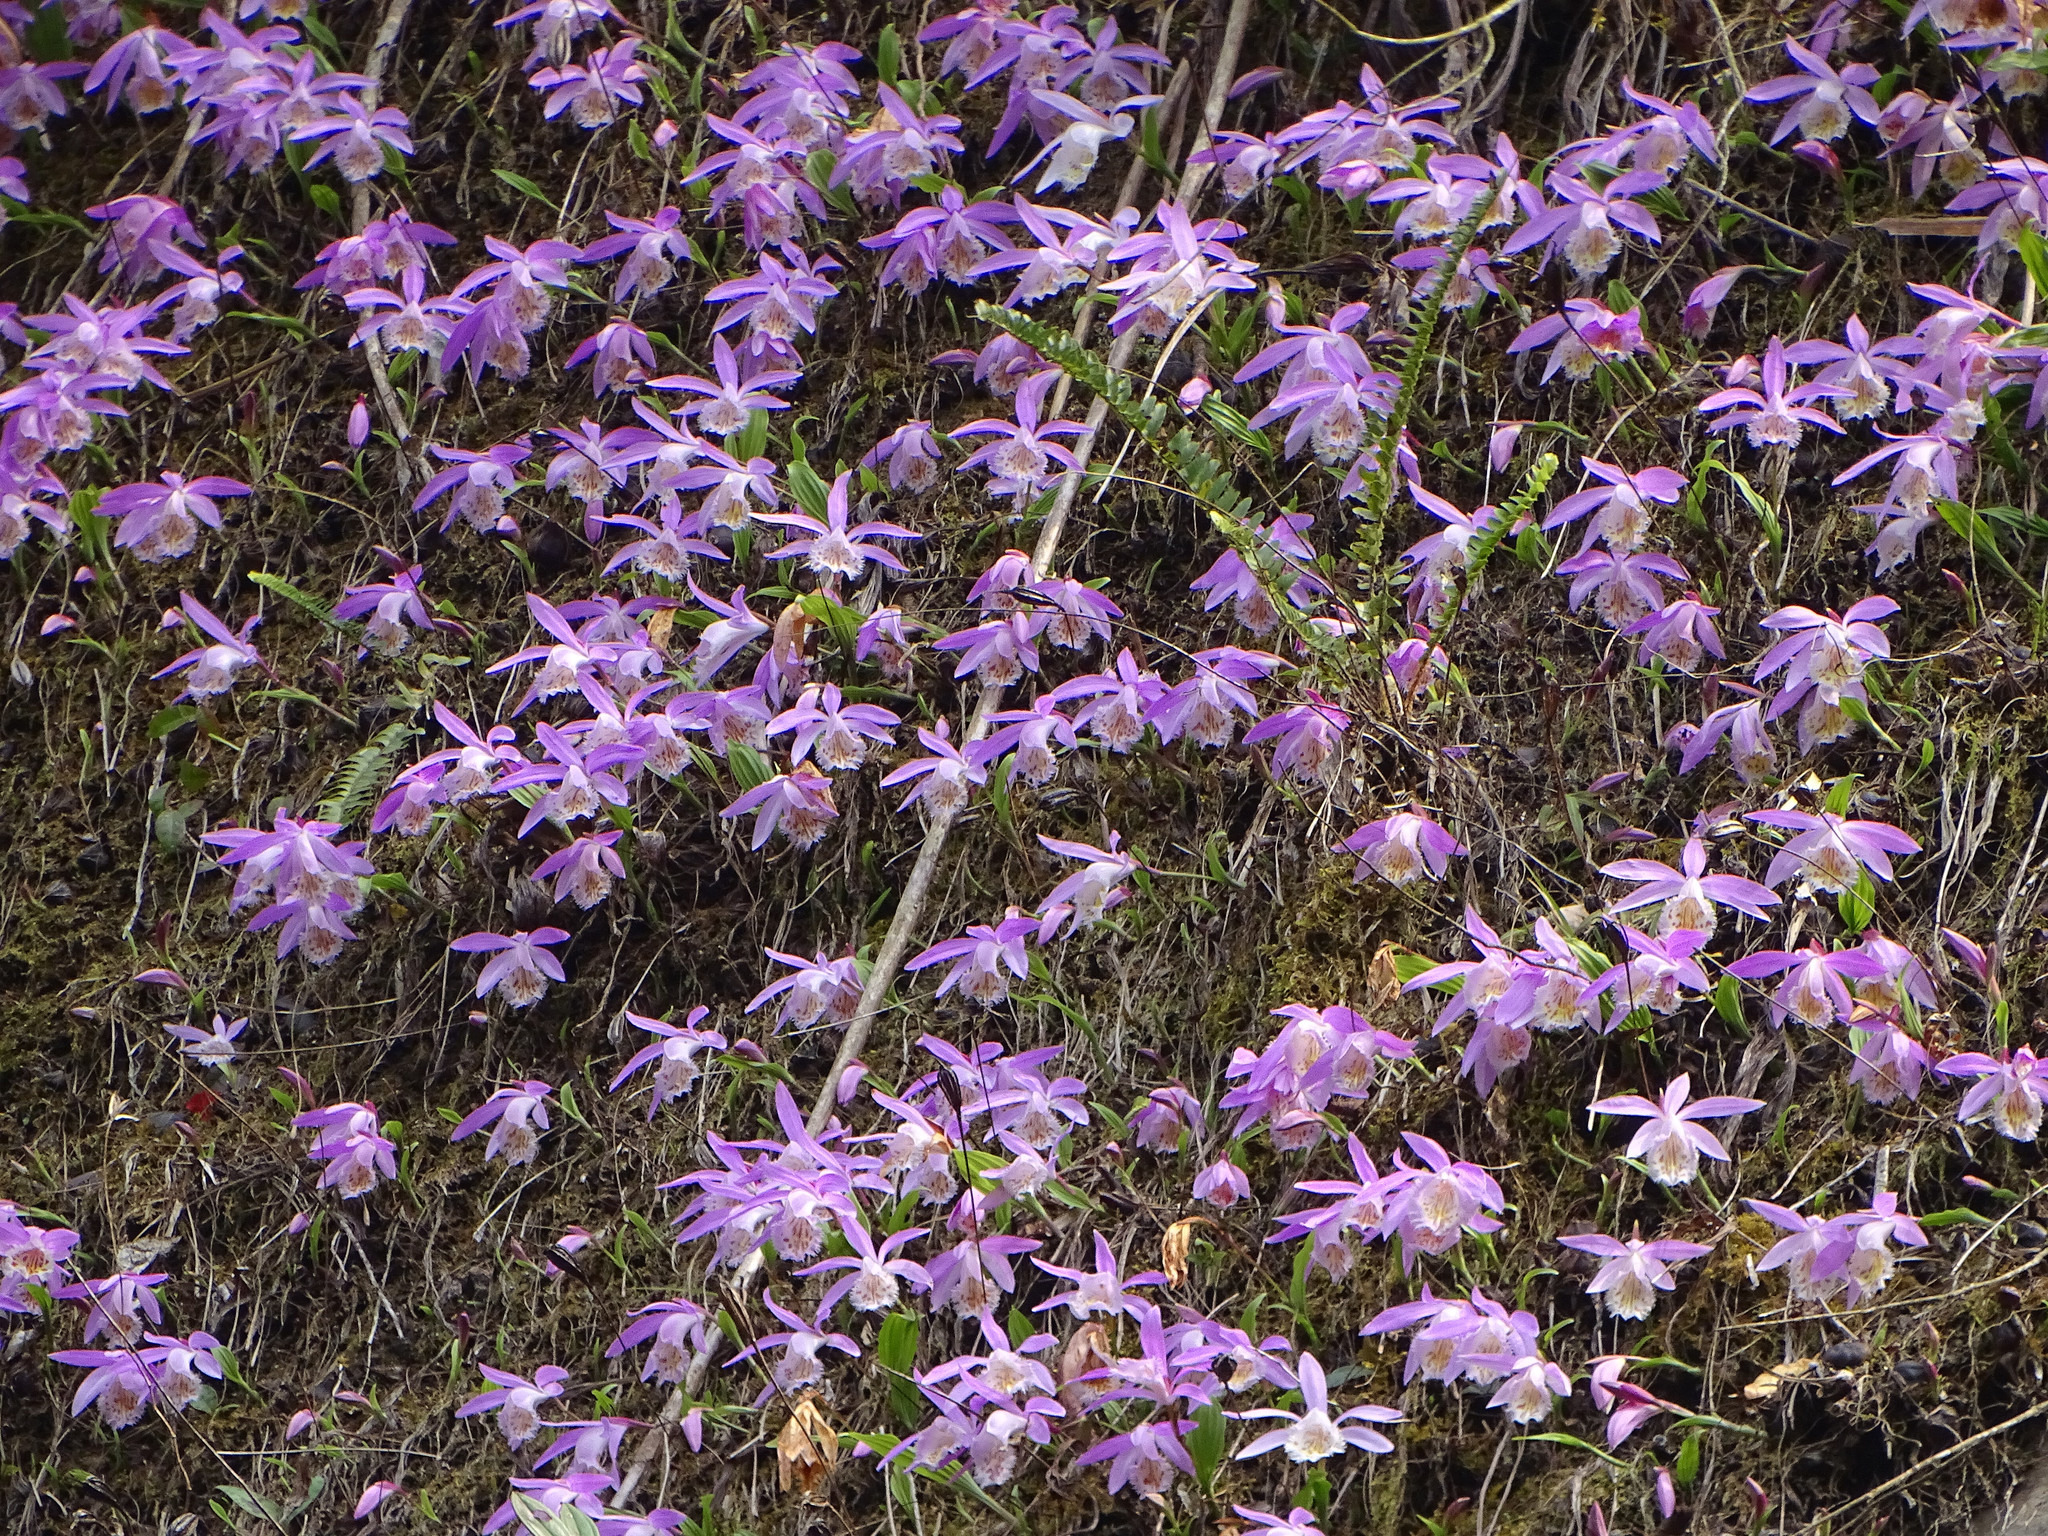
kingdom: Plantae
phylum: Tracheophyta
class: Liliopsida
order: Asparagales
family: Orchidaceae
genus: Pleione
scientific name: Pleione formosana
